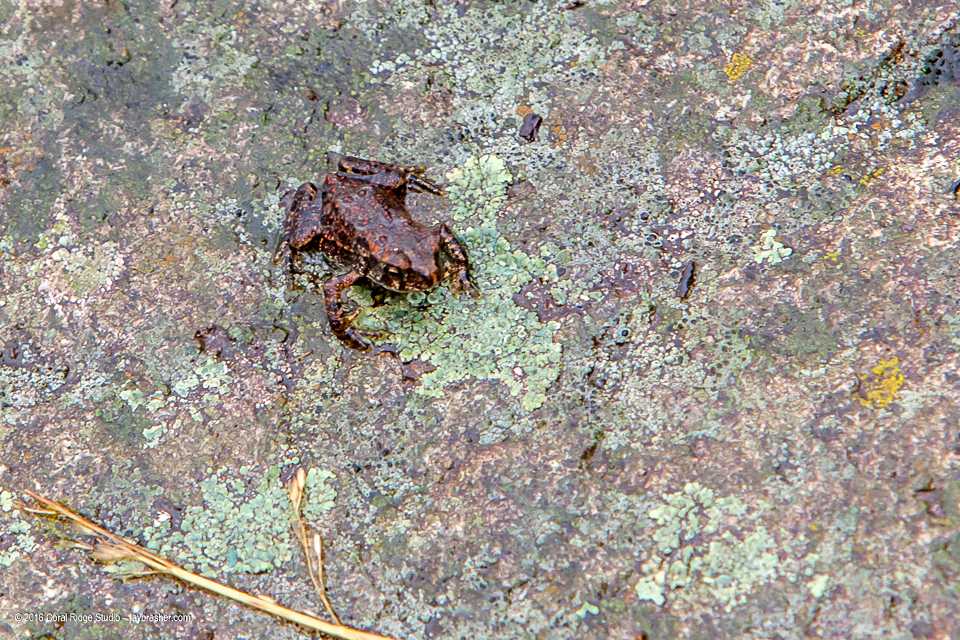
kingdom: Animalia
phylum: Chordata
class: Amphibia
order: Anura
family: Bufonidae
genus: Anaxyrus
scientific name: Anaxyrus americanus
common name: American toad
